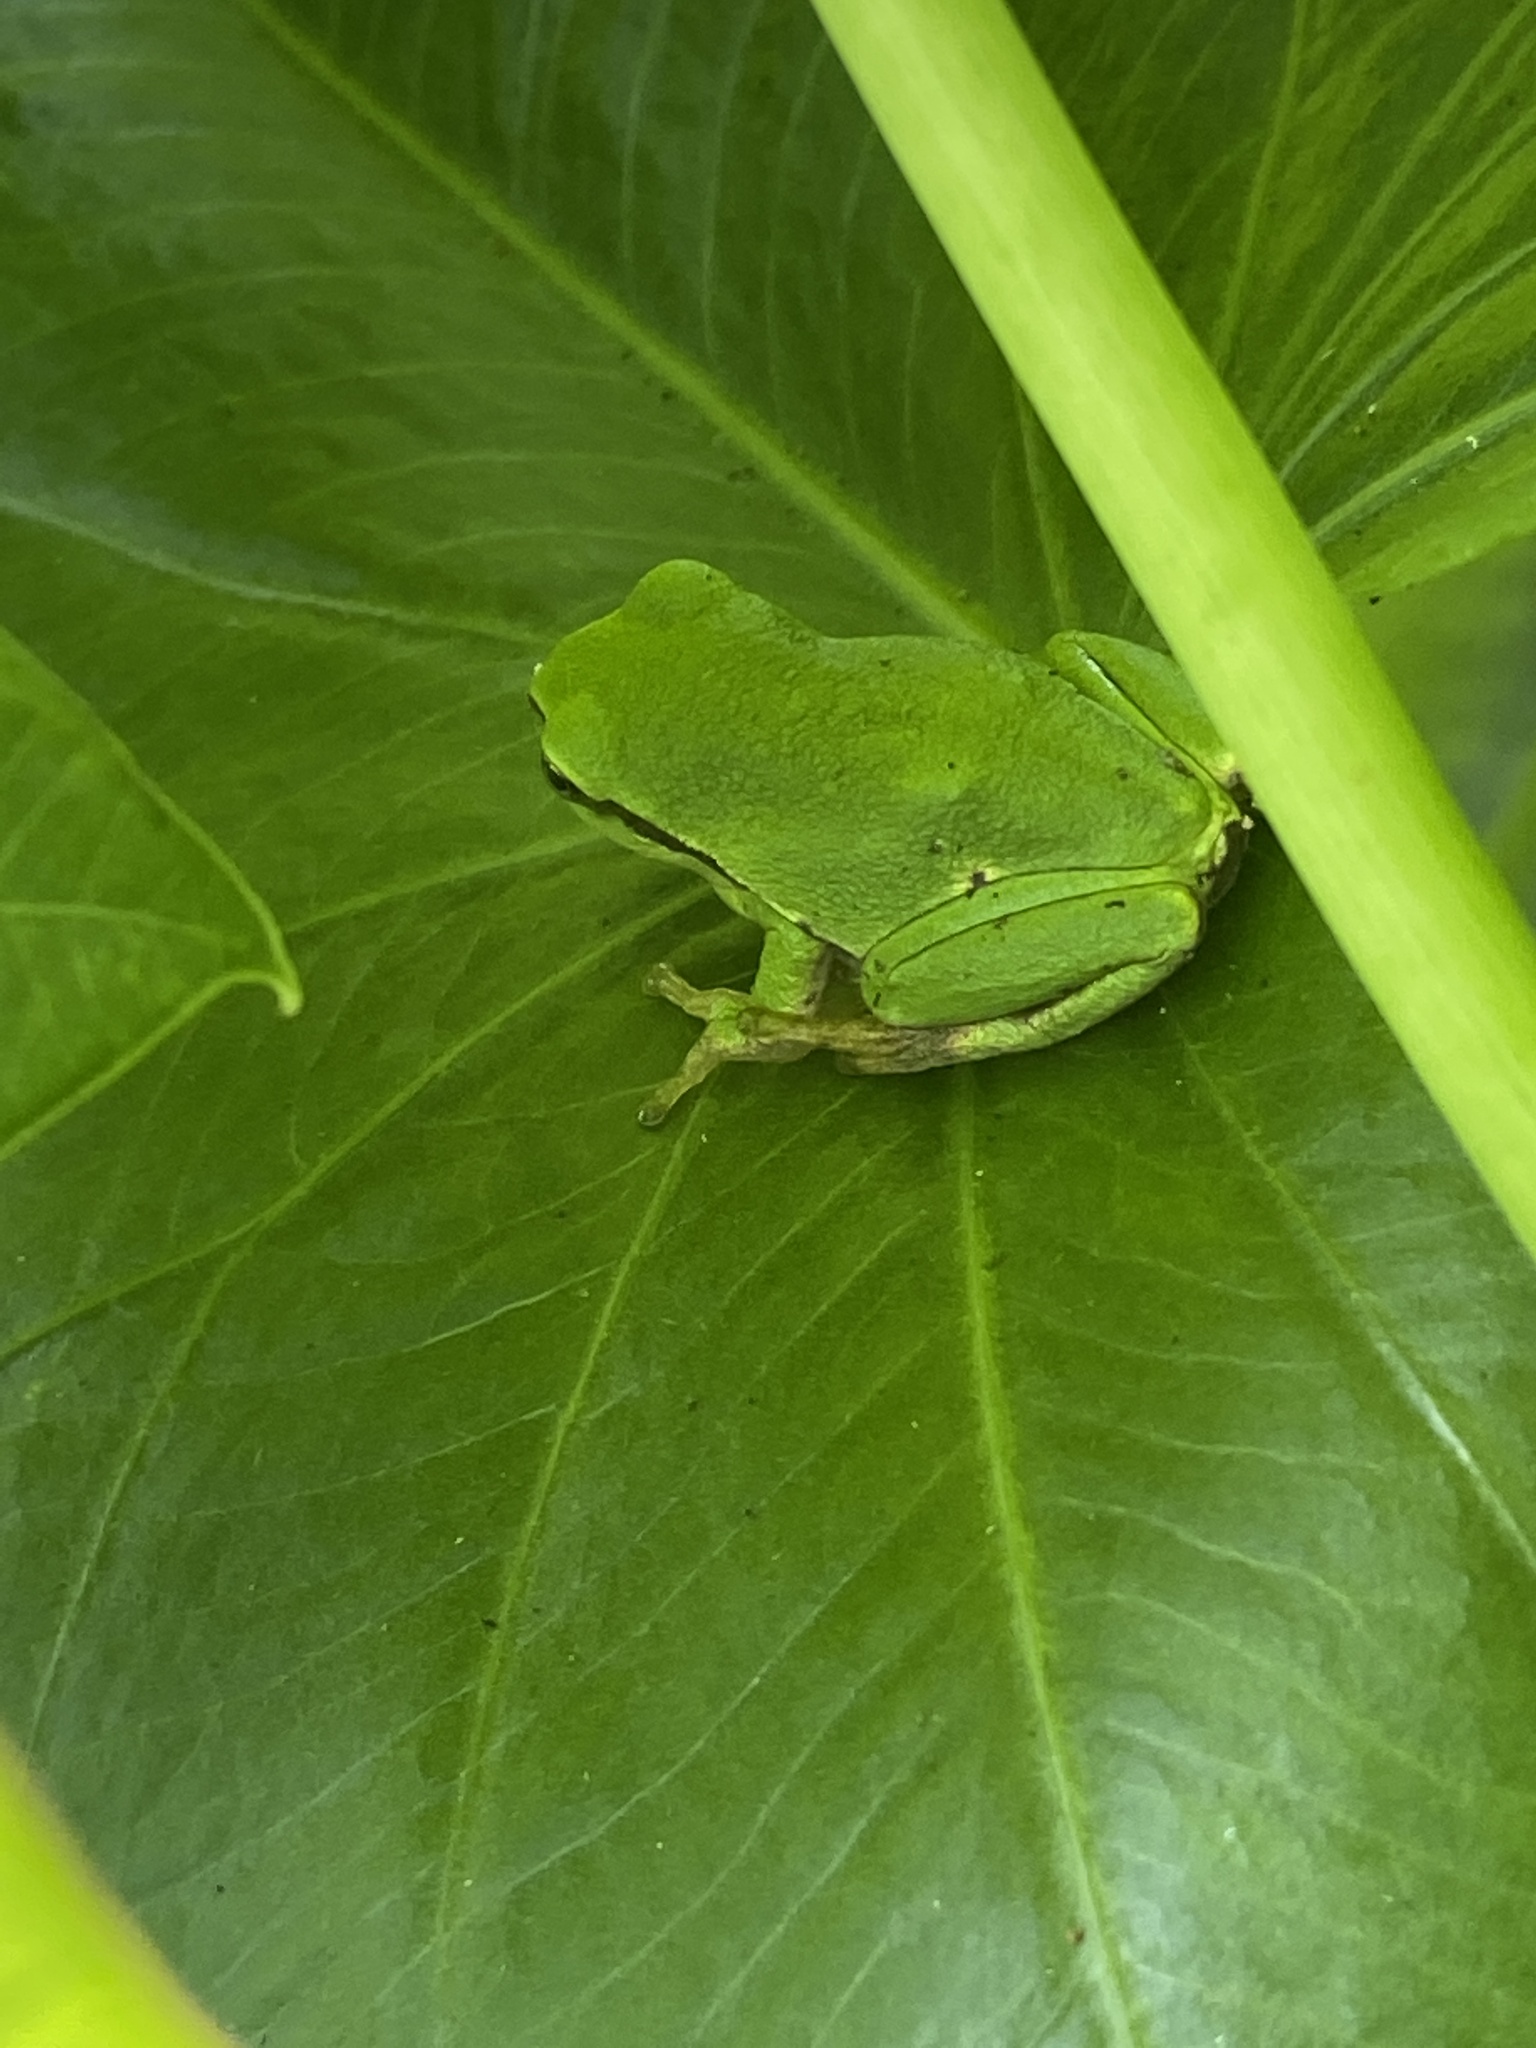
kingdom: Animalia
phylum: Chordata
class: Amphibia
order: Anura
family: Hylidae
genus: Hyla
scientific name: Hyla arborea
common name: Common tree frog
